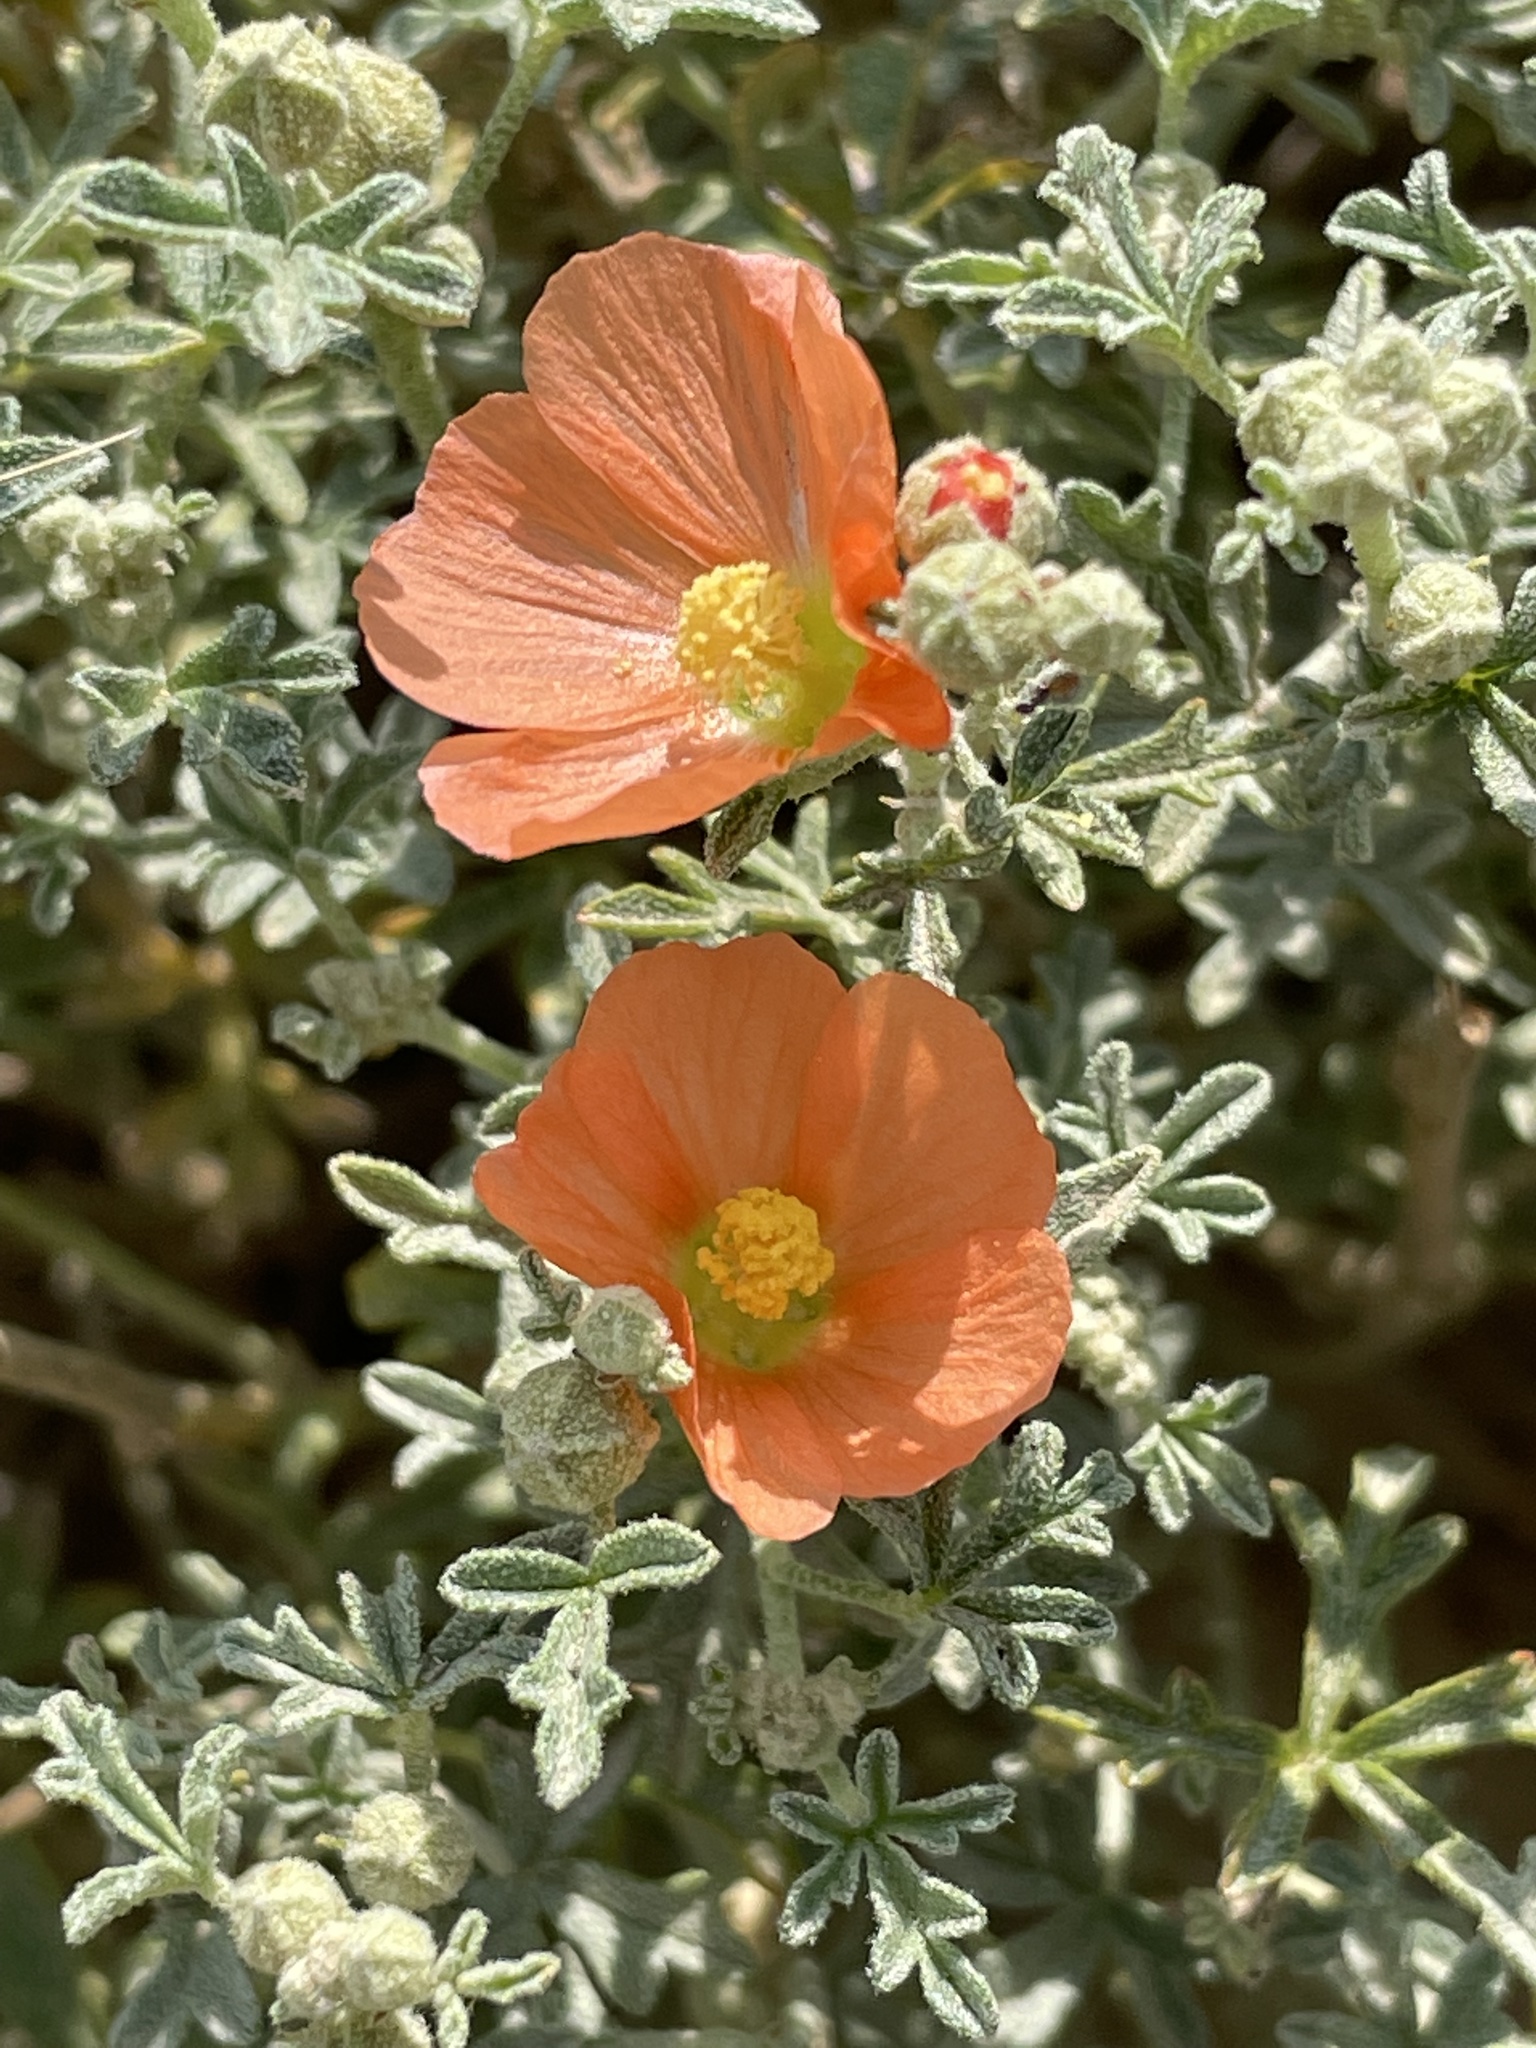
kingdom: Plantae
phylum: Tracheophyta
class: Magnoliopsida
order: Malvales
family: Malvaceae
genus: Sphaeralcea
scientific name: Sphaeralcea coccinea
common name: Moss-rose
